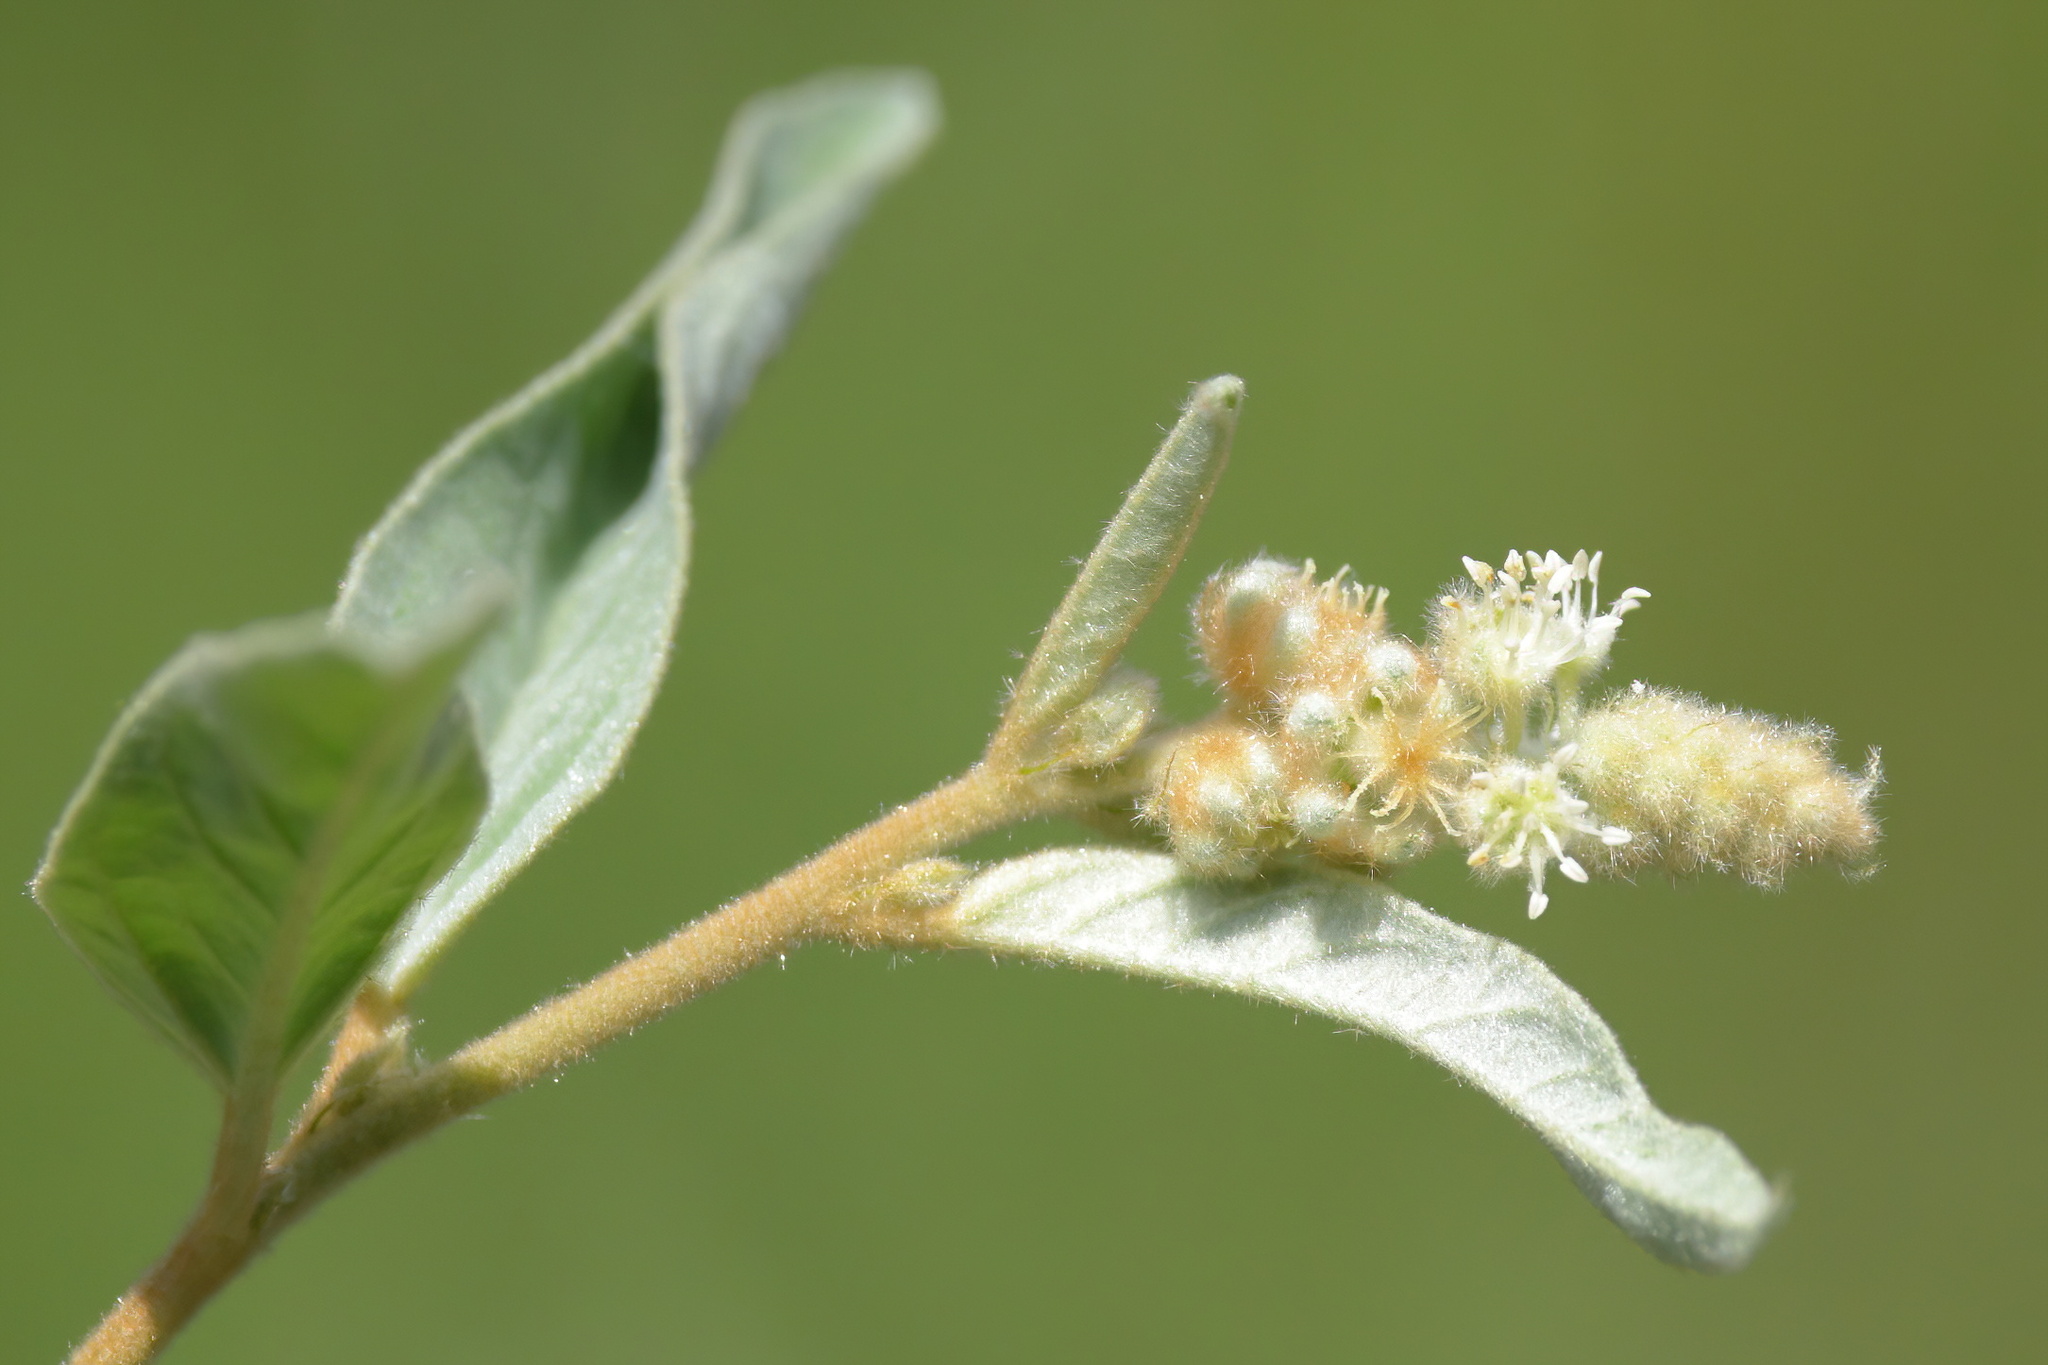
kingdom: Plantae
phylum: Tracheophyta
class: Magnoliopsida
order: Malpighiales
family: Euphorbiaceae
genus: Croton
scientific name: Croton lindheimeri
